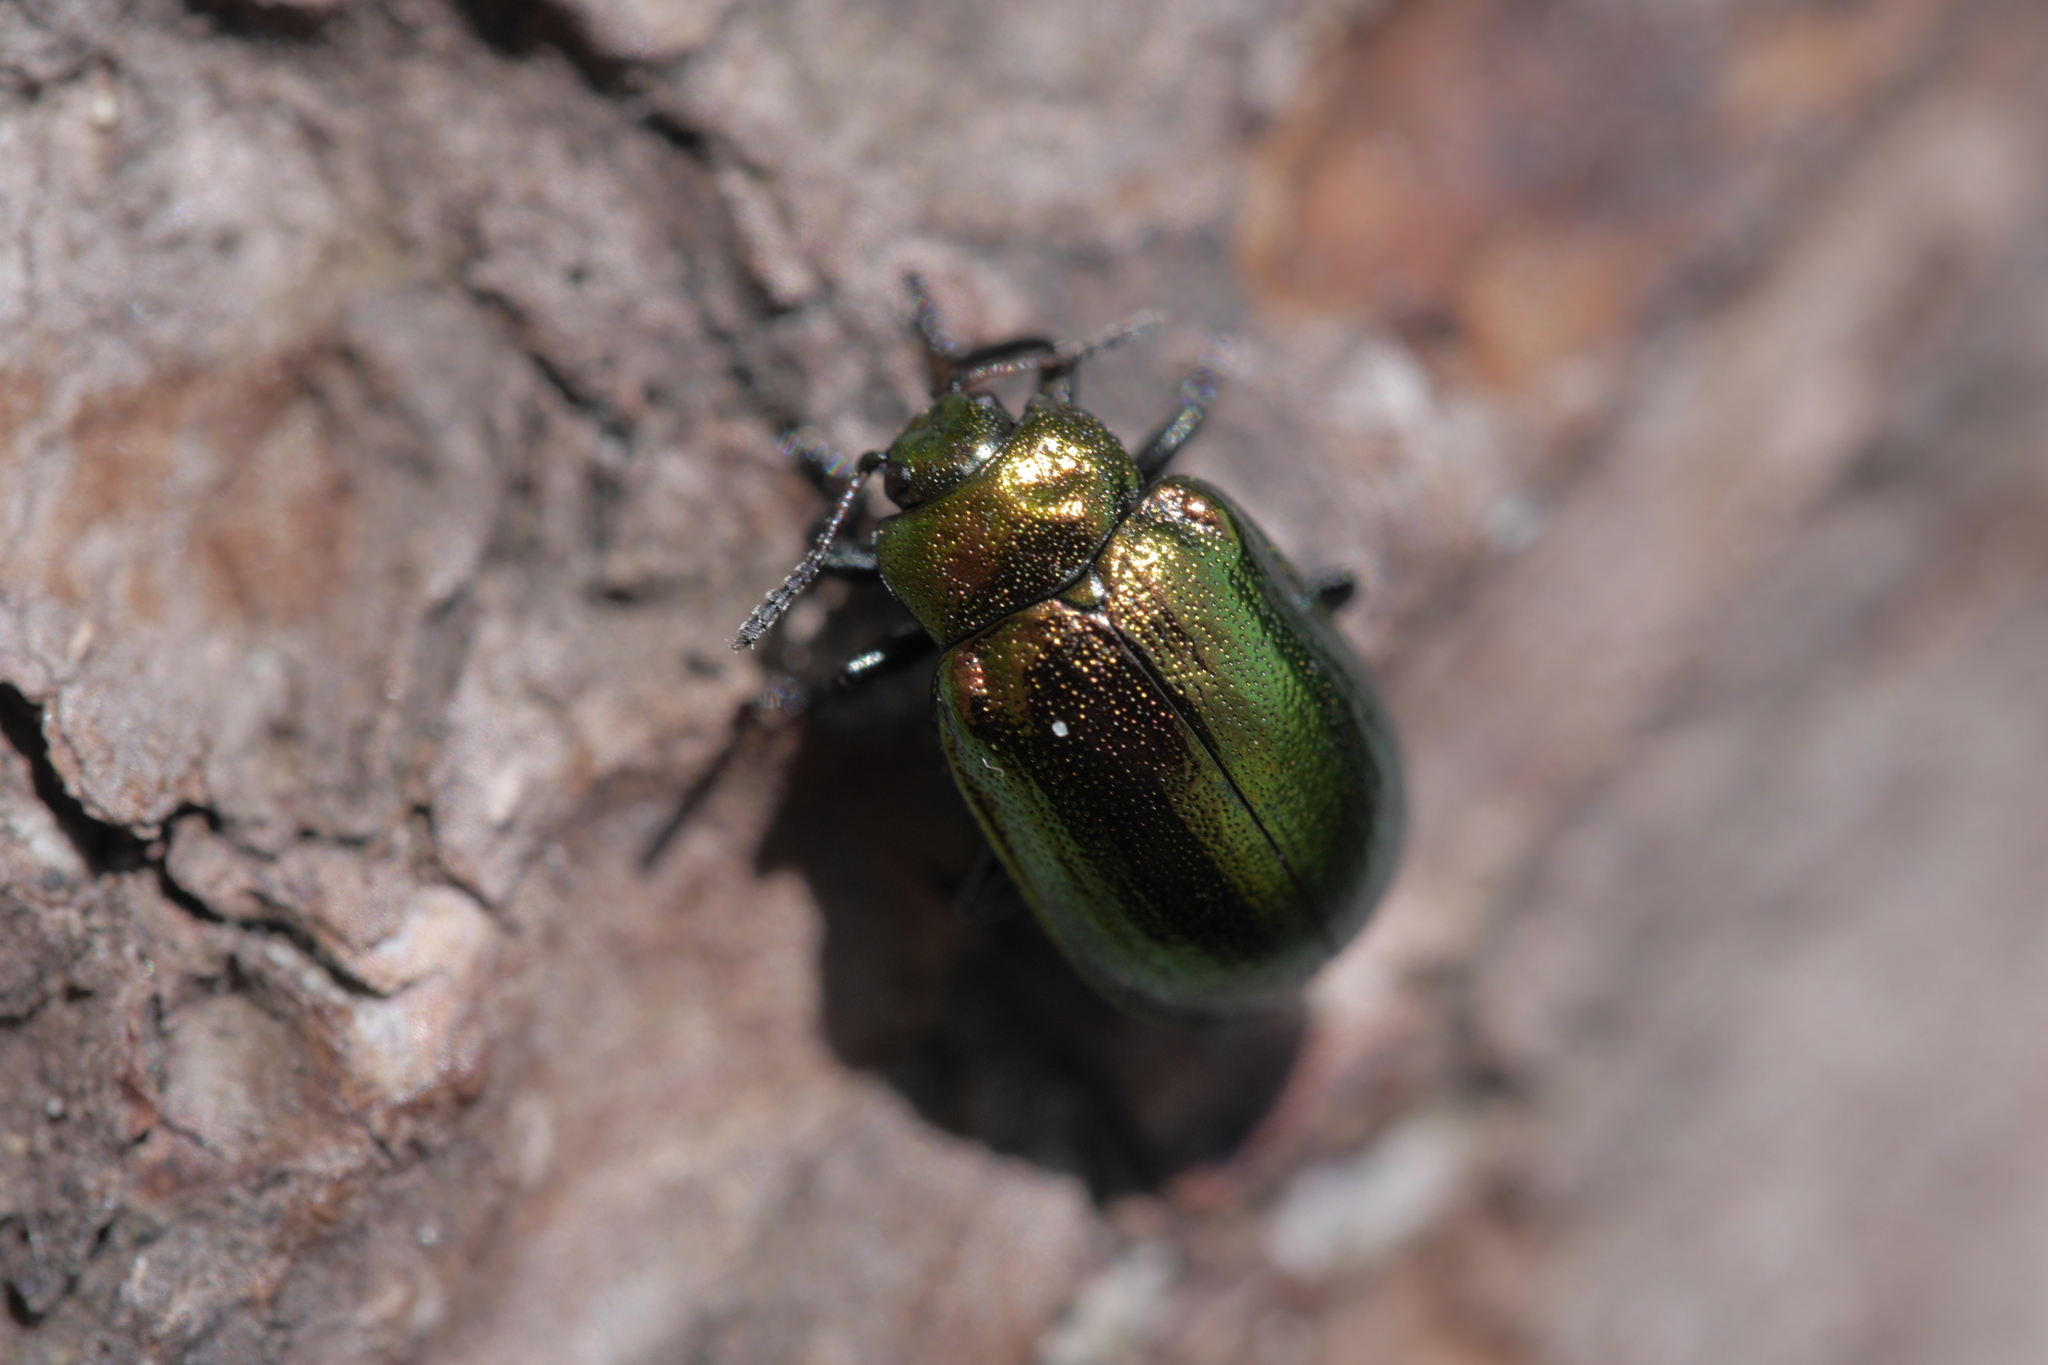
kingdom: Animalia
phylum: Arthropoda
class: Insecta
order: Coleoptera
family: Chrysomelidae
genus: Plagiosterna
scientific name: Plagiosterna aenea
